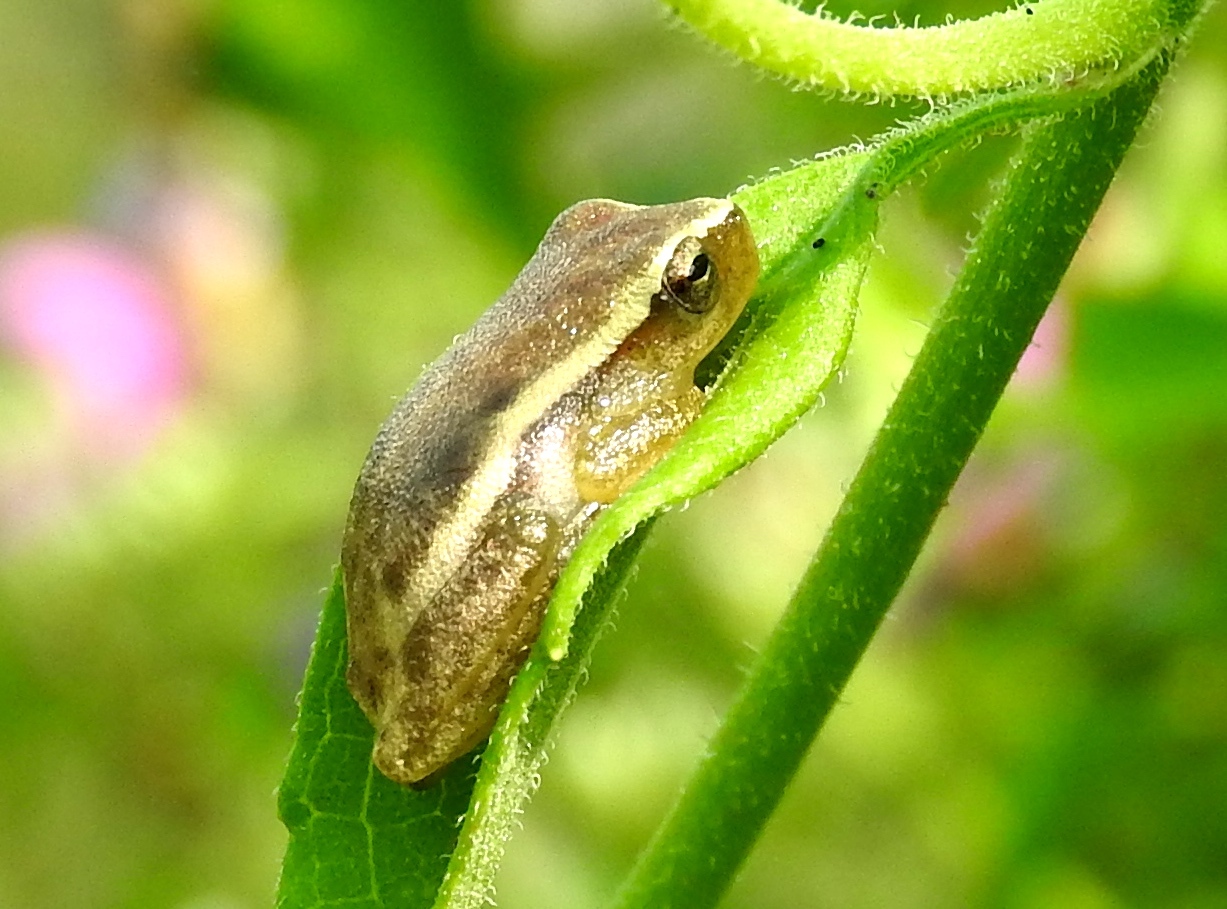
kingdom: Animalia
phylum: Chordata
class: Amphibia
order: Anura
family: Hylidae
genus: Tlalocohyla
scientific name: Tlalocohyla smithii
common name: Dwarf mexican treefrog
